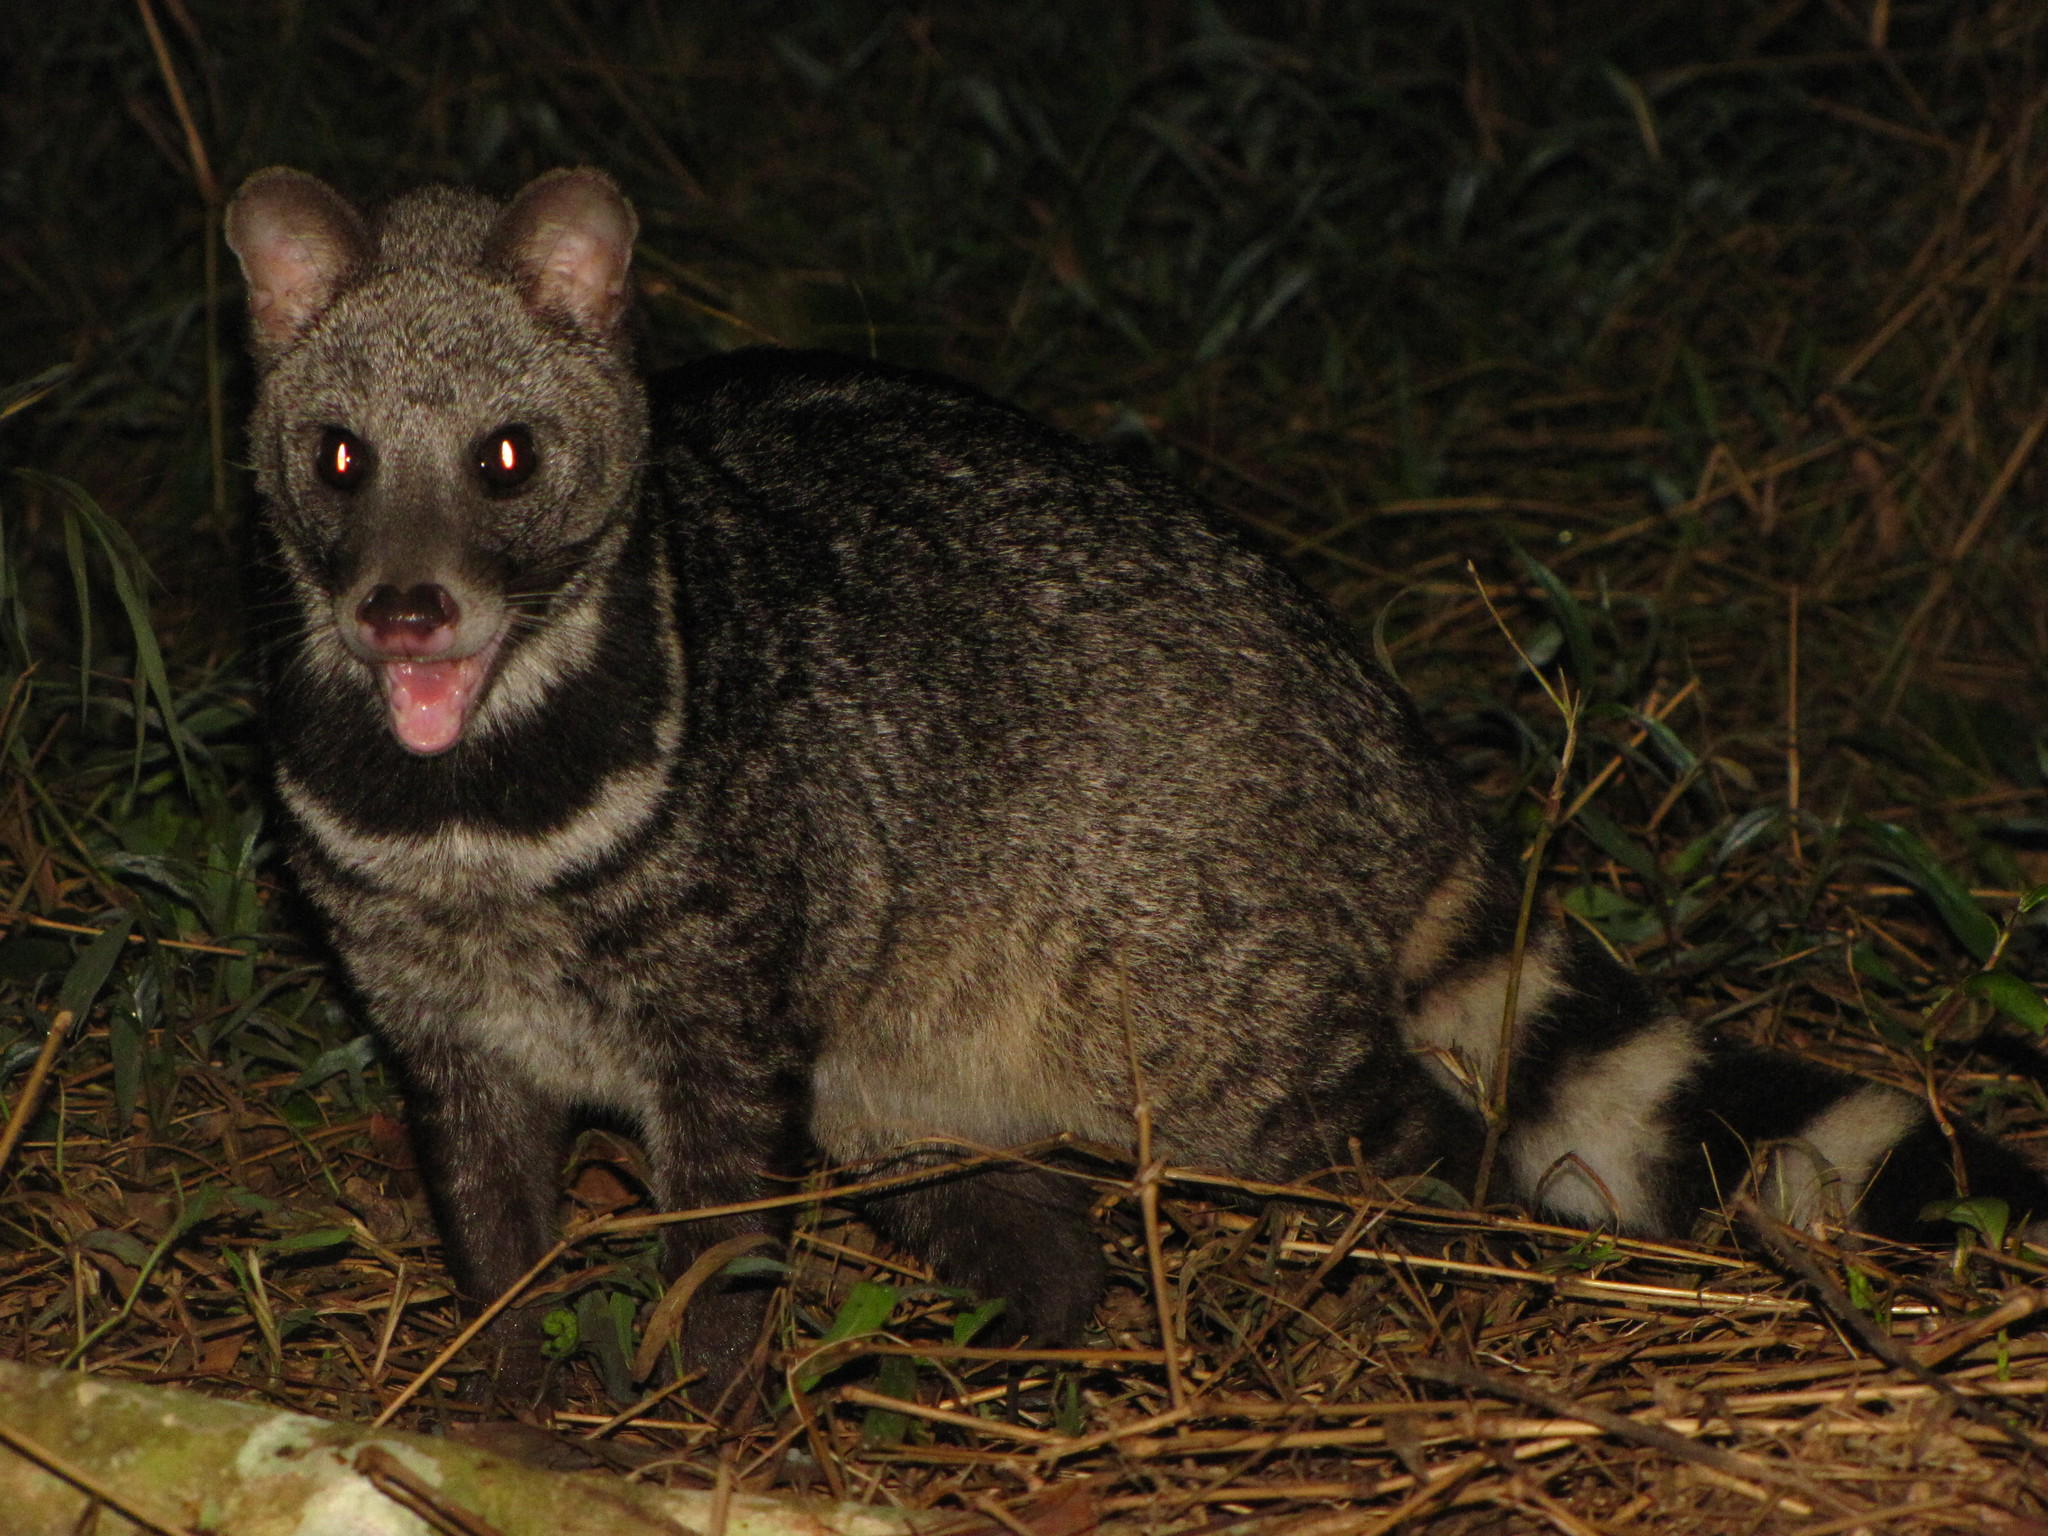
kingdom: Animalia
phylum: Chordata
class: Mammalia
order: Carnivora
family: Viverridae
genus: Viverra
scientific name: Viverra zibetha
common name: Large indian civet
